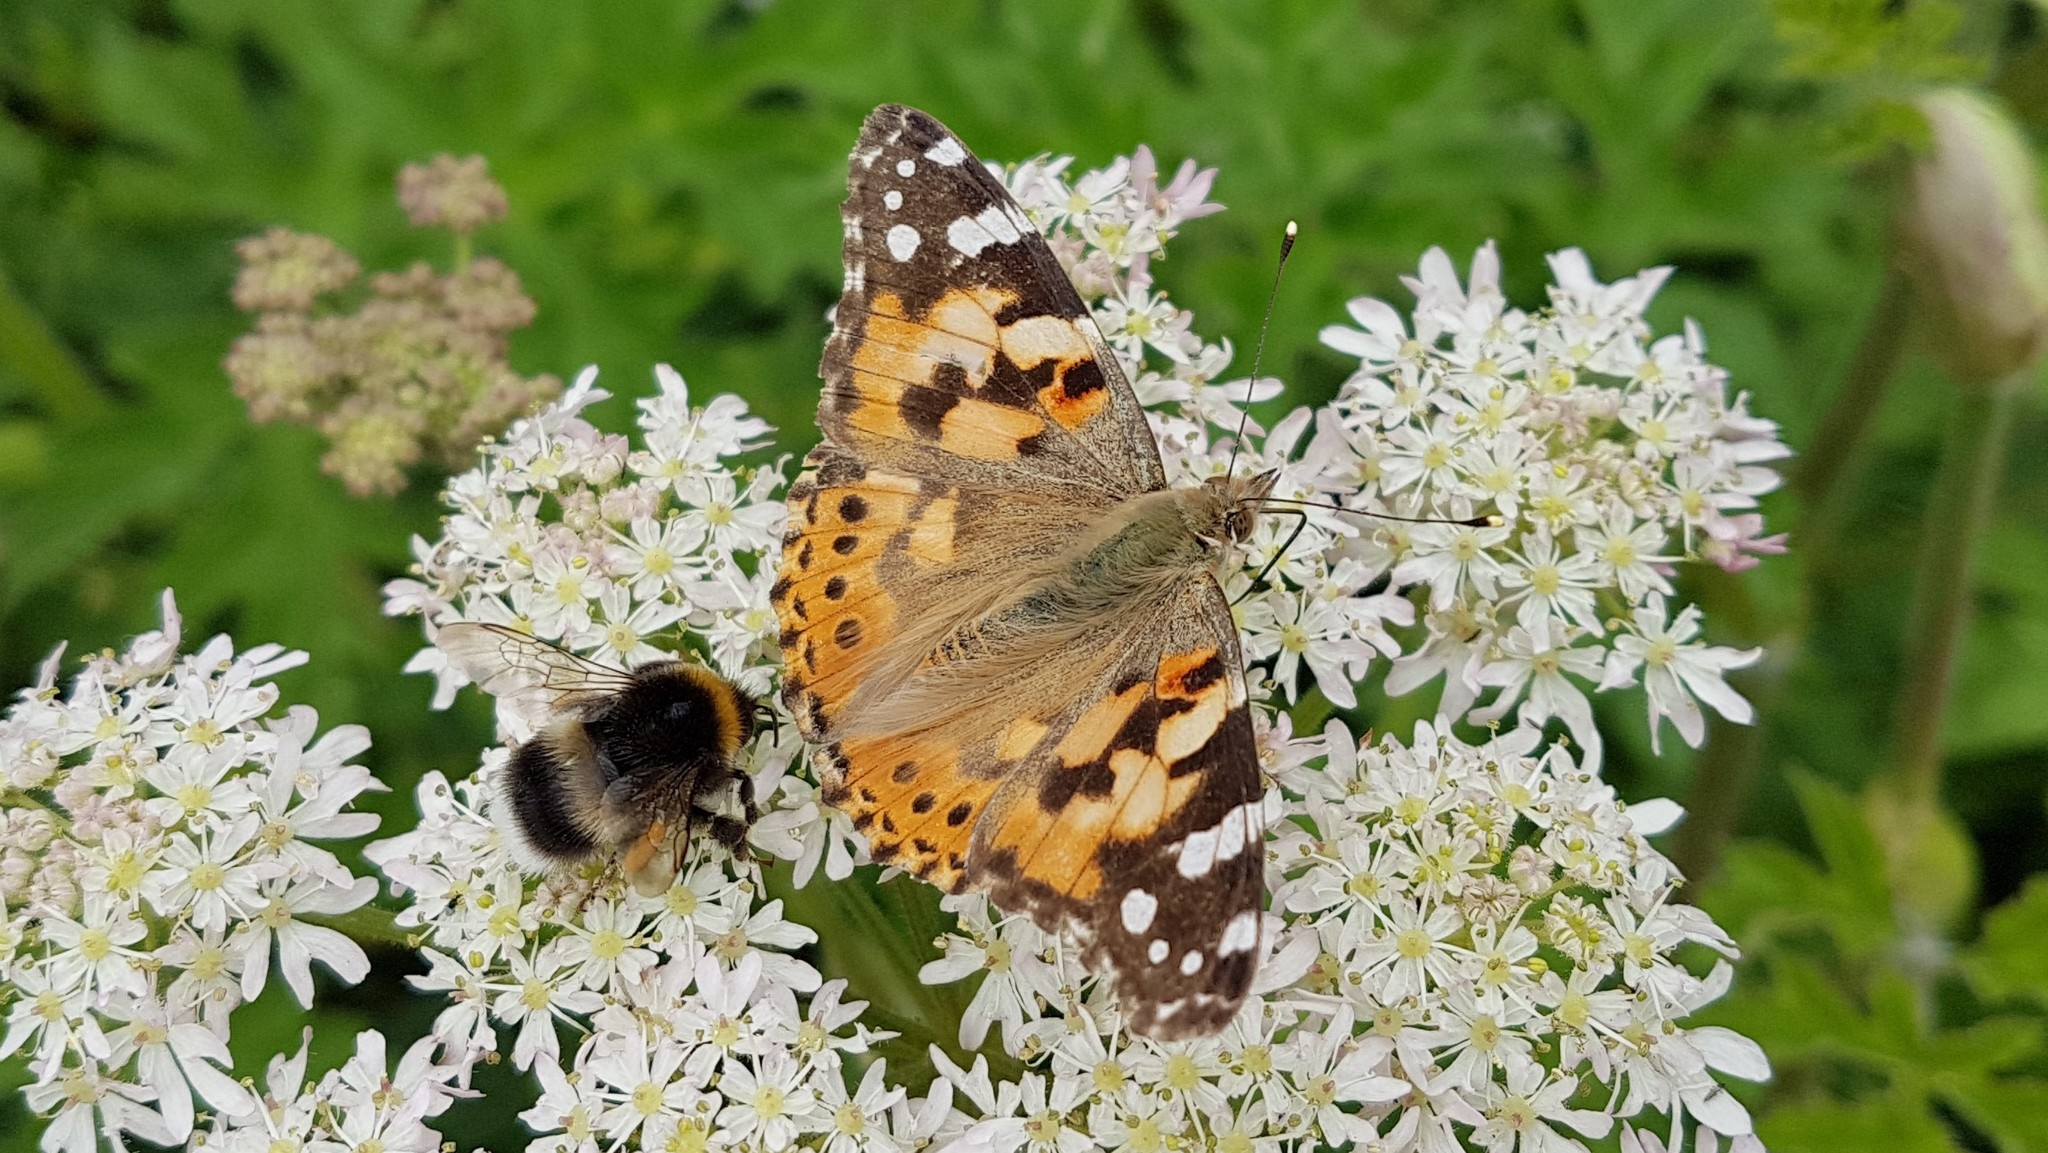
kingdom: Animalia
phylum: Arthropoda
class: Insecta
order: Lepidoptera
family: Nymphalidae
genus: Vanessa
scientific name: Vanessa cardui
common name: Painted lady
